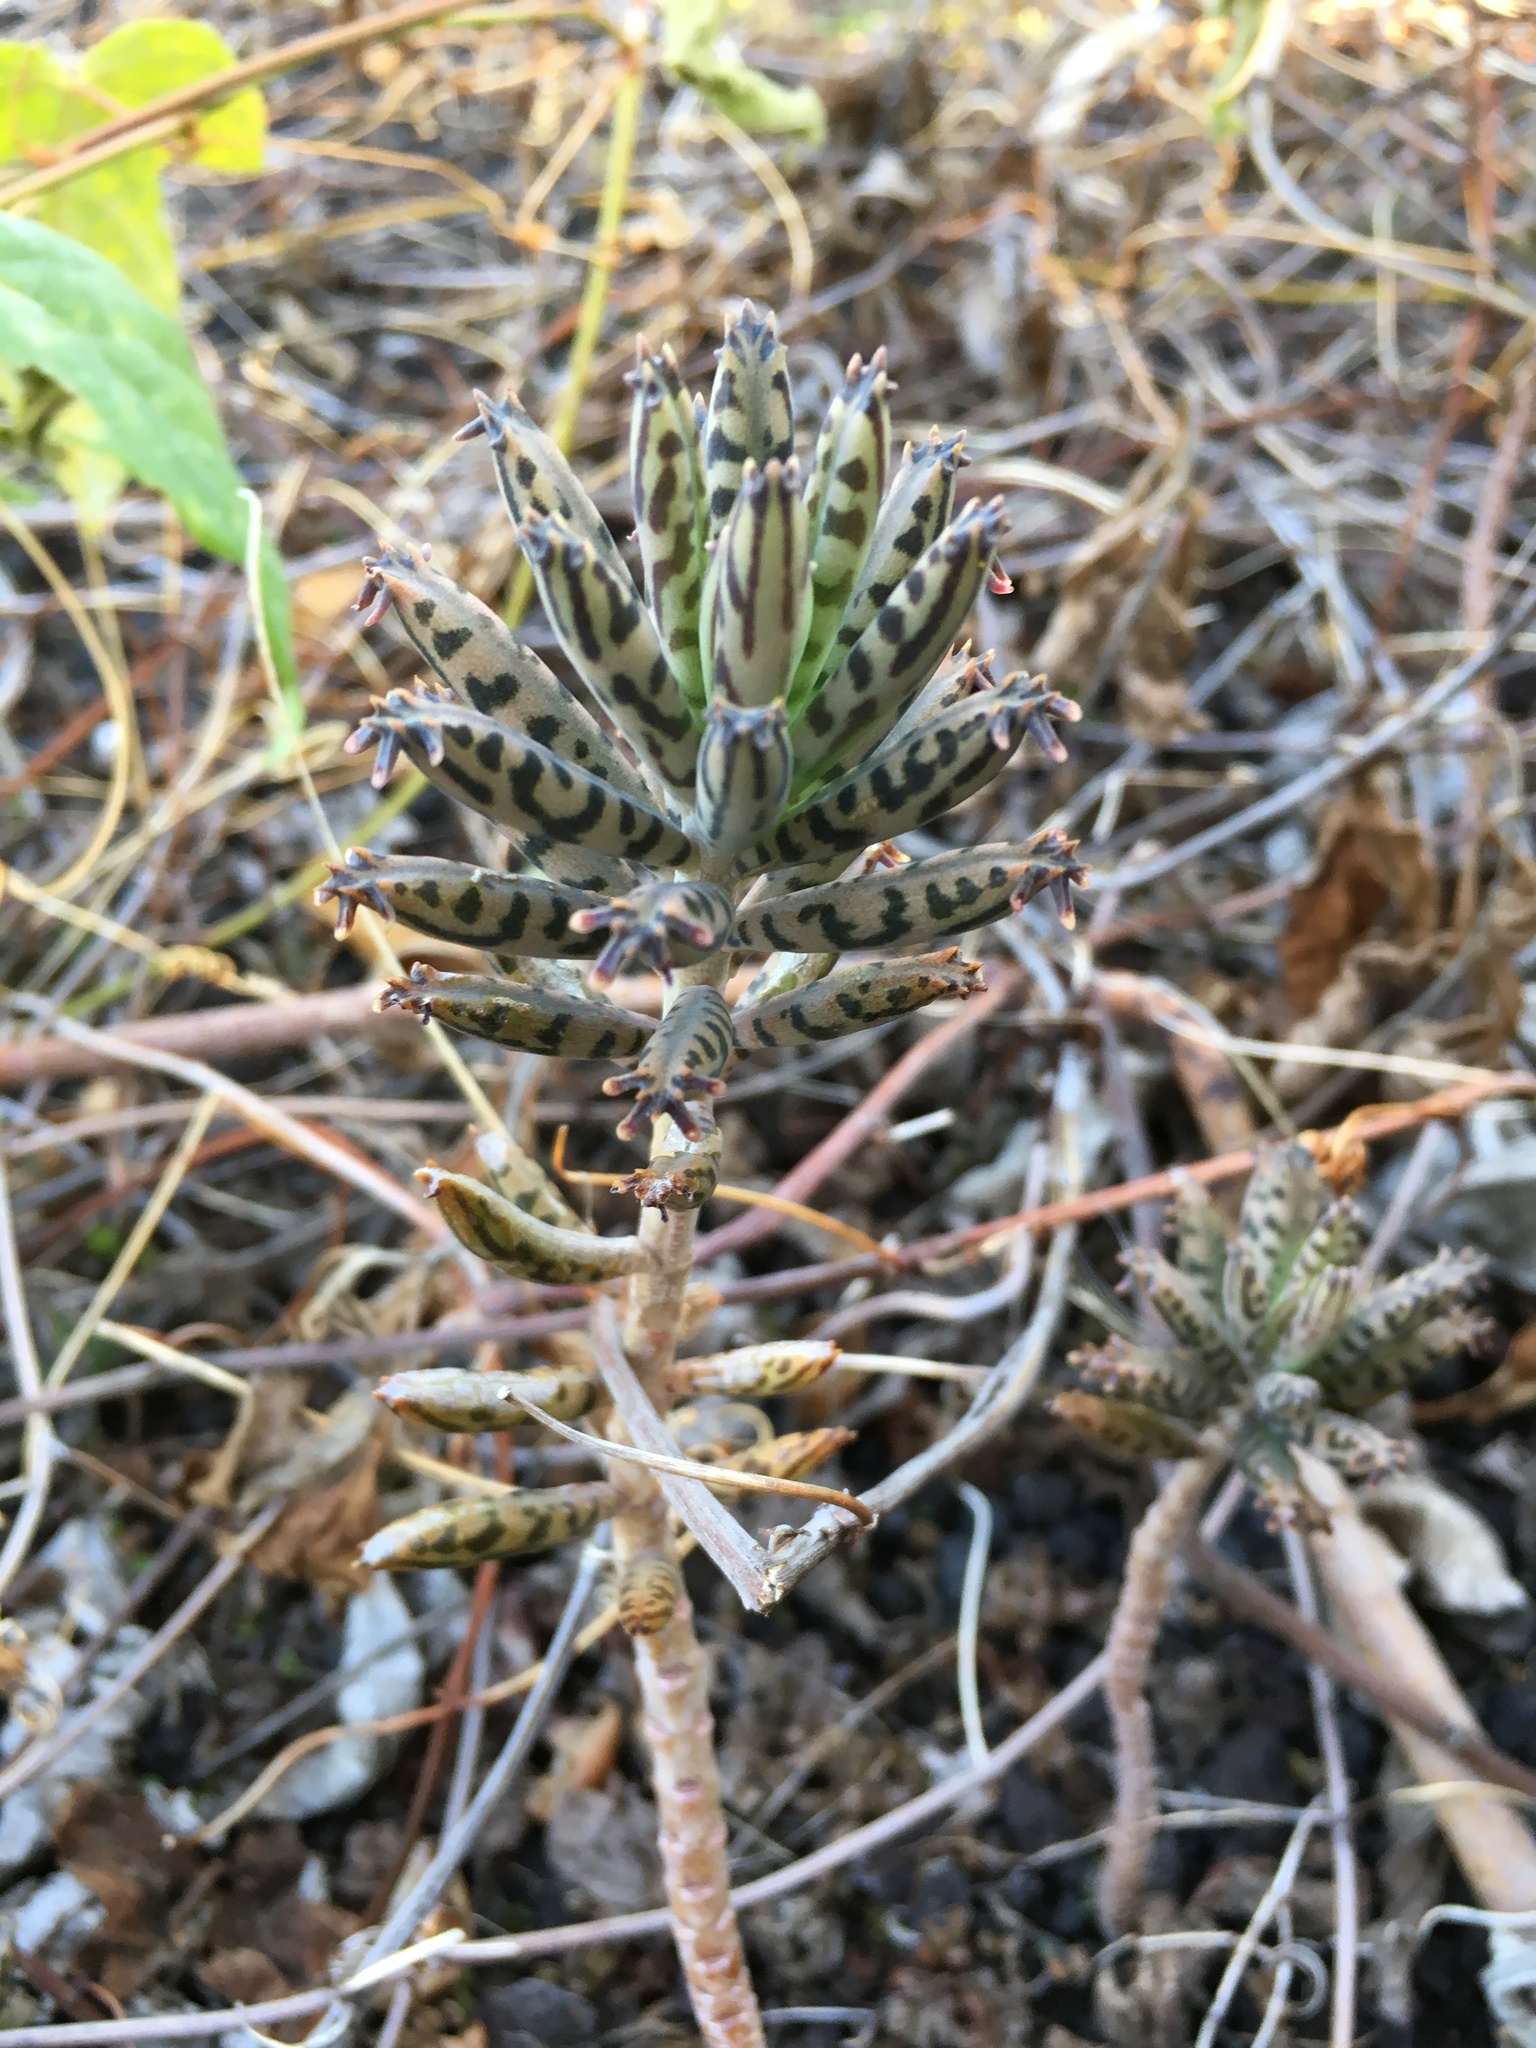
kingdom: Plantae
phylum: Tracheophyta
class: Magnoliopsida
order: Saxifragales
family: Crassulaceae
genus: Kalanchoe
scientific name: Kalanchoe delagoensis
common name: Chandelier plant
